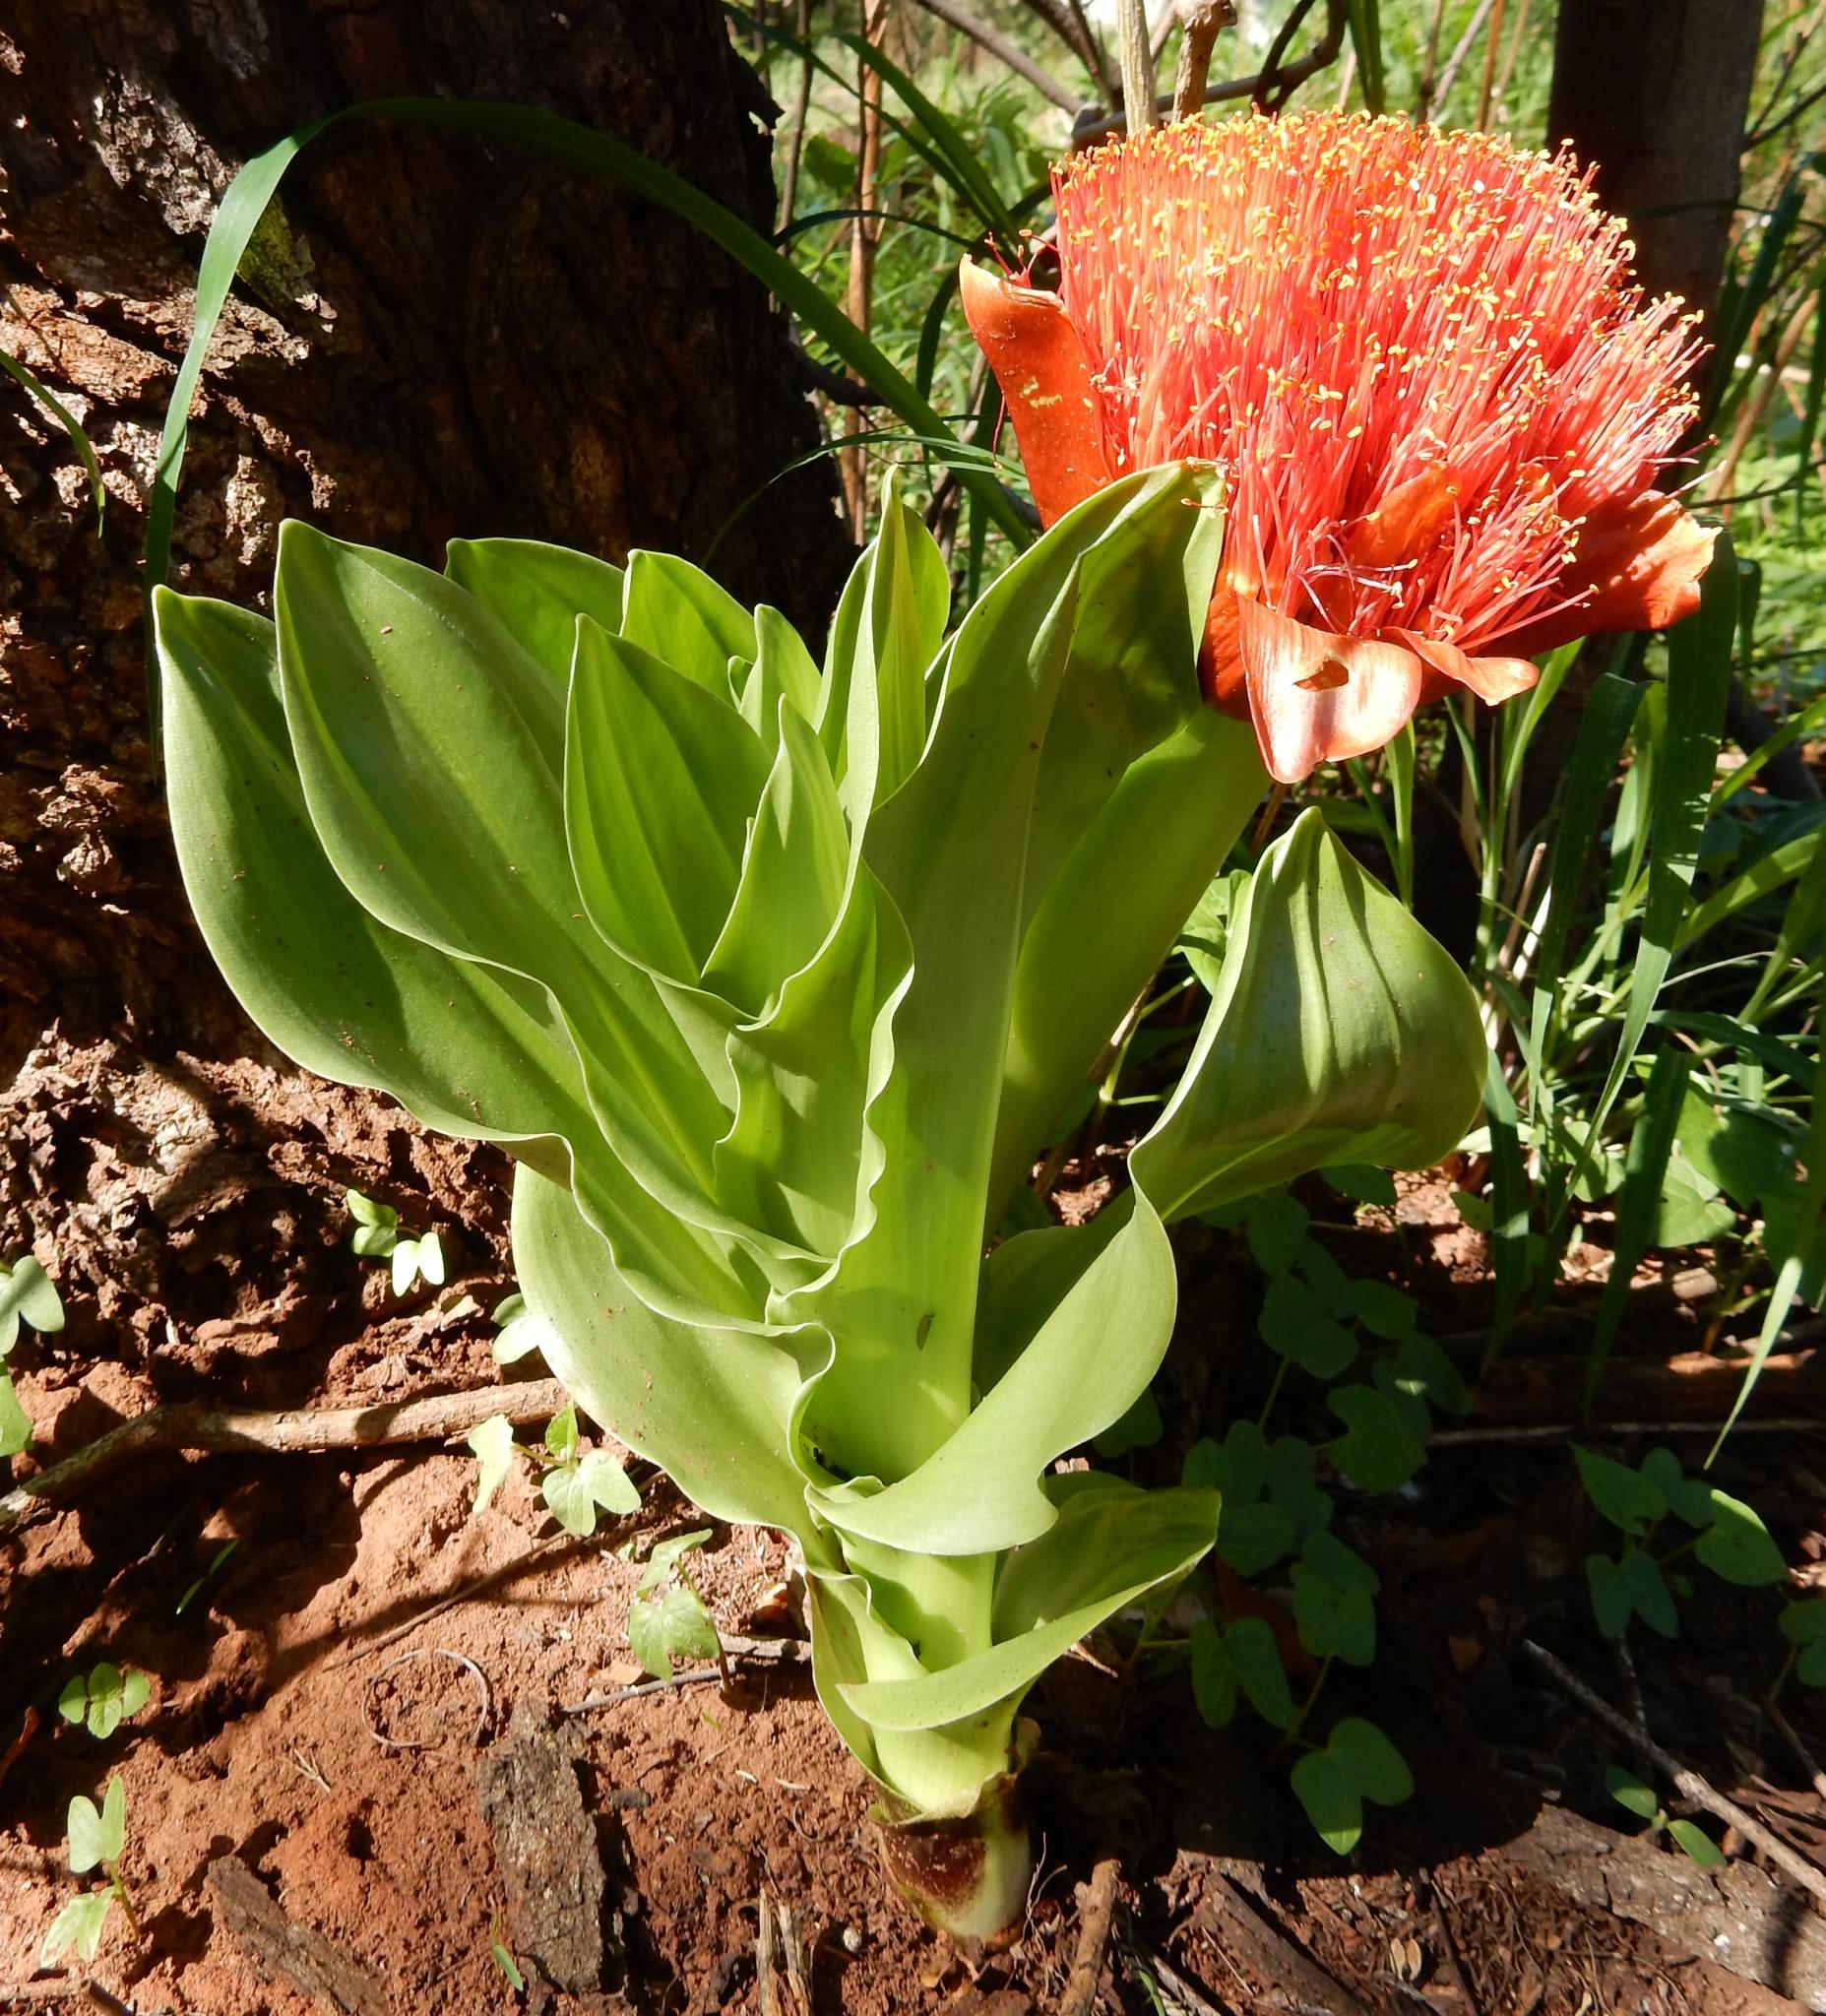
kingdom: Plantae
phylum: Tracheophyta
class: Liliopsida
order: Asparagales
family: Amaryllidaceae
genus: Scadoxus
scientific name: Scadoxus puniceus
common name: Royal-paintbrush
